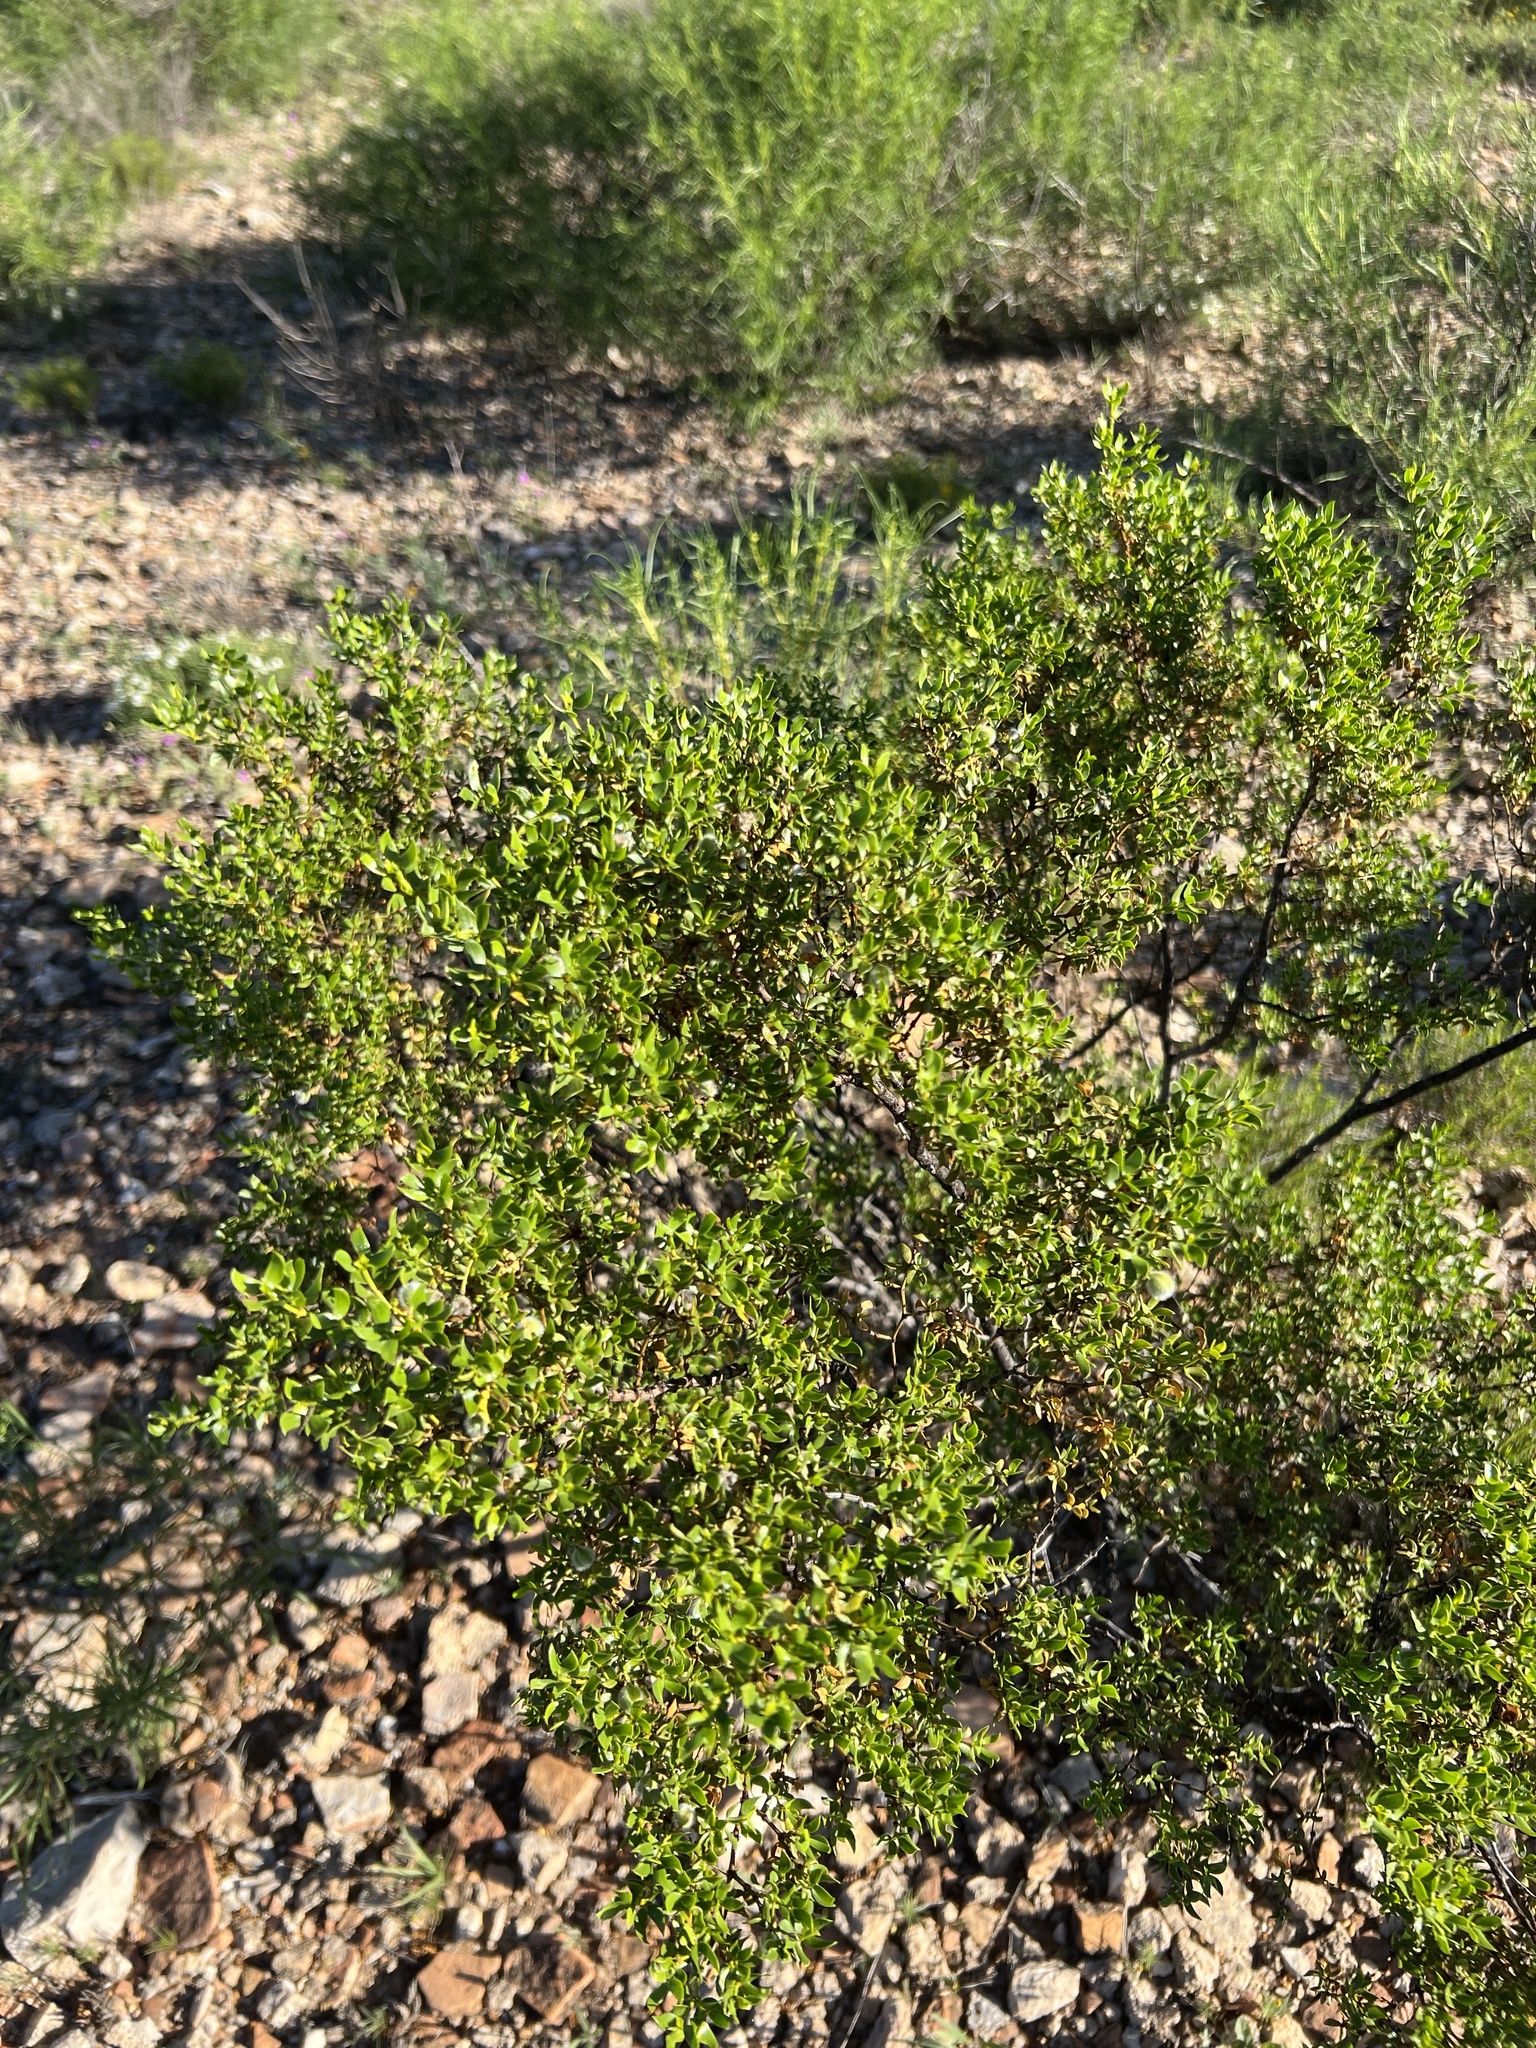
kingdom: Plantae
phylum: Tracheophyta
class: Magnoliopsida
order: Zygophyllales
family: Zygophyllaceae
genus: Larrea
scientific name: Larrea tridentata
